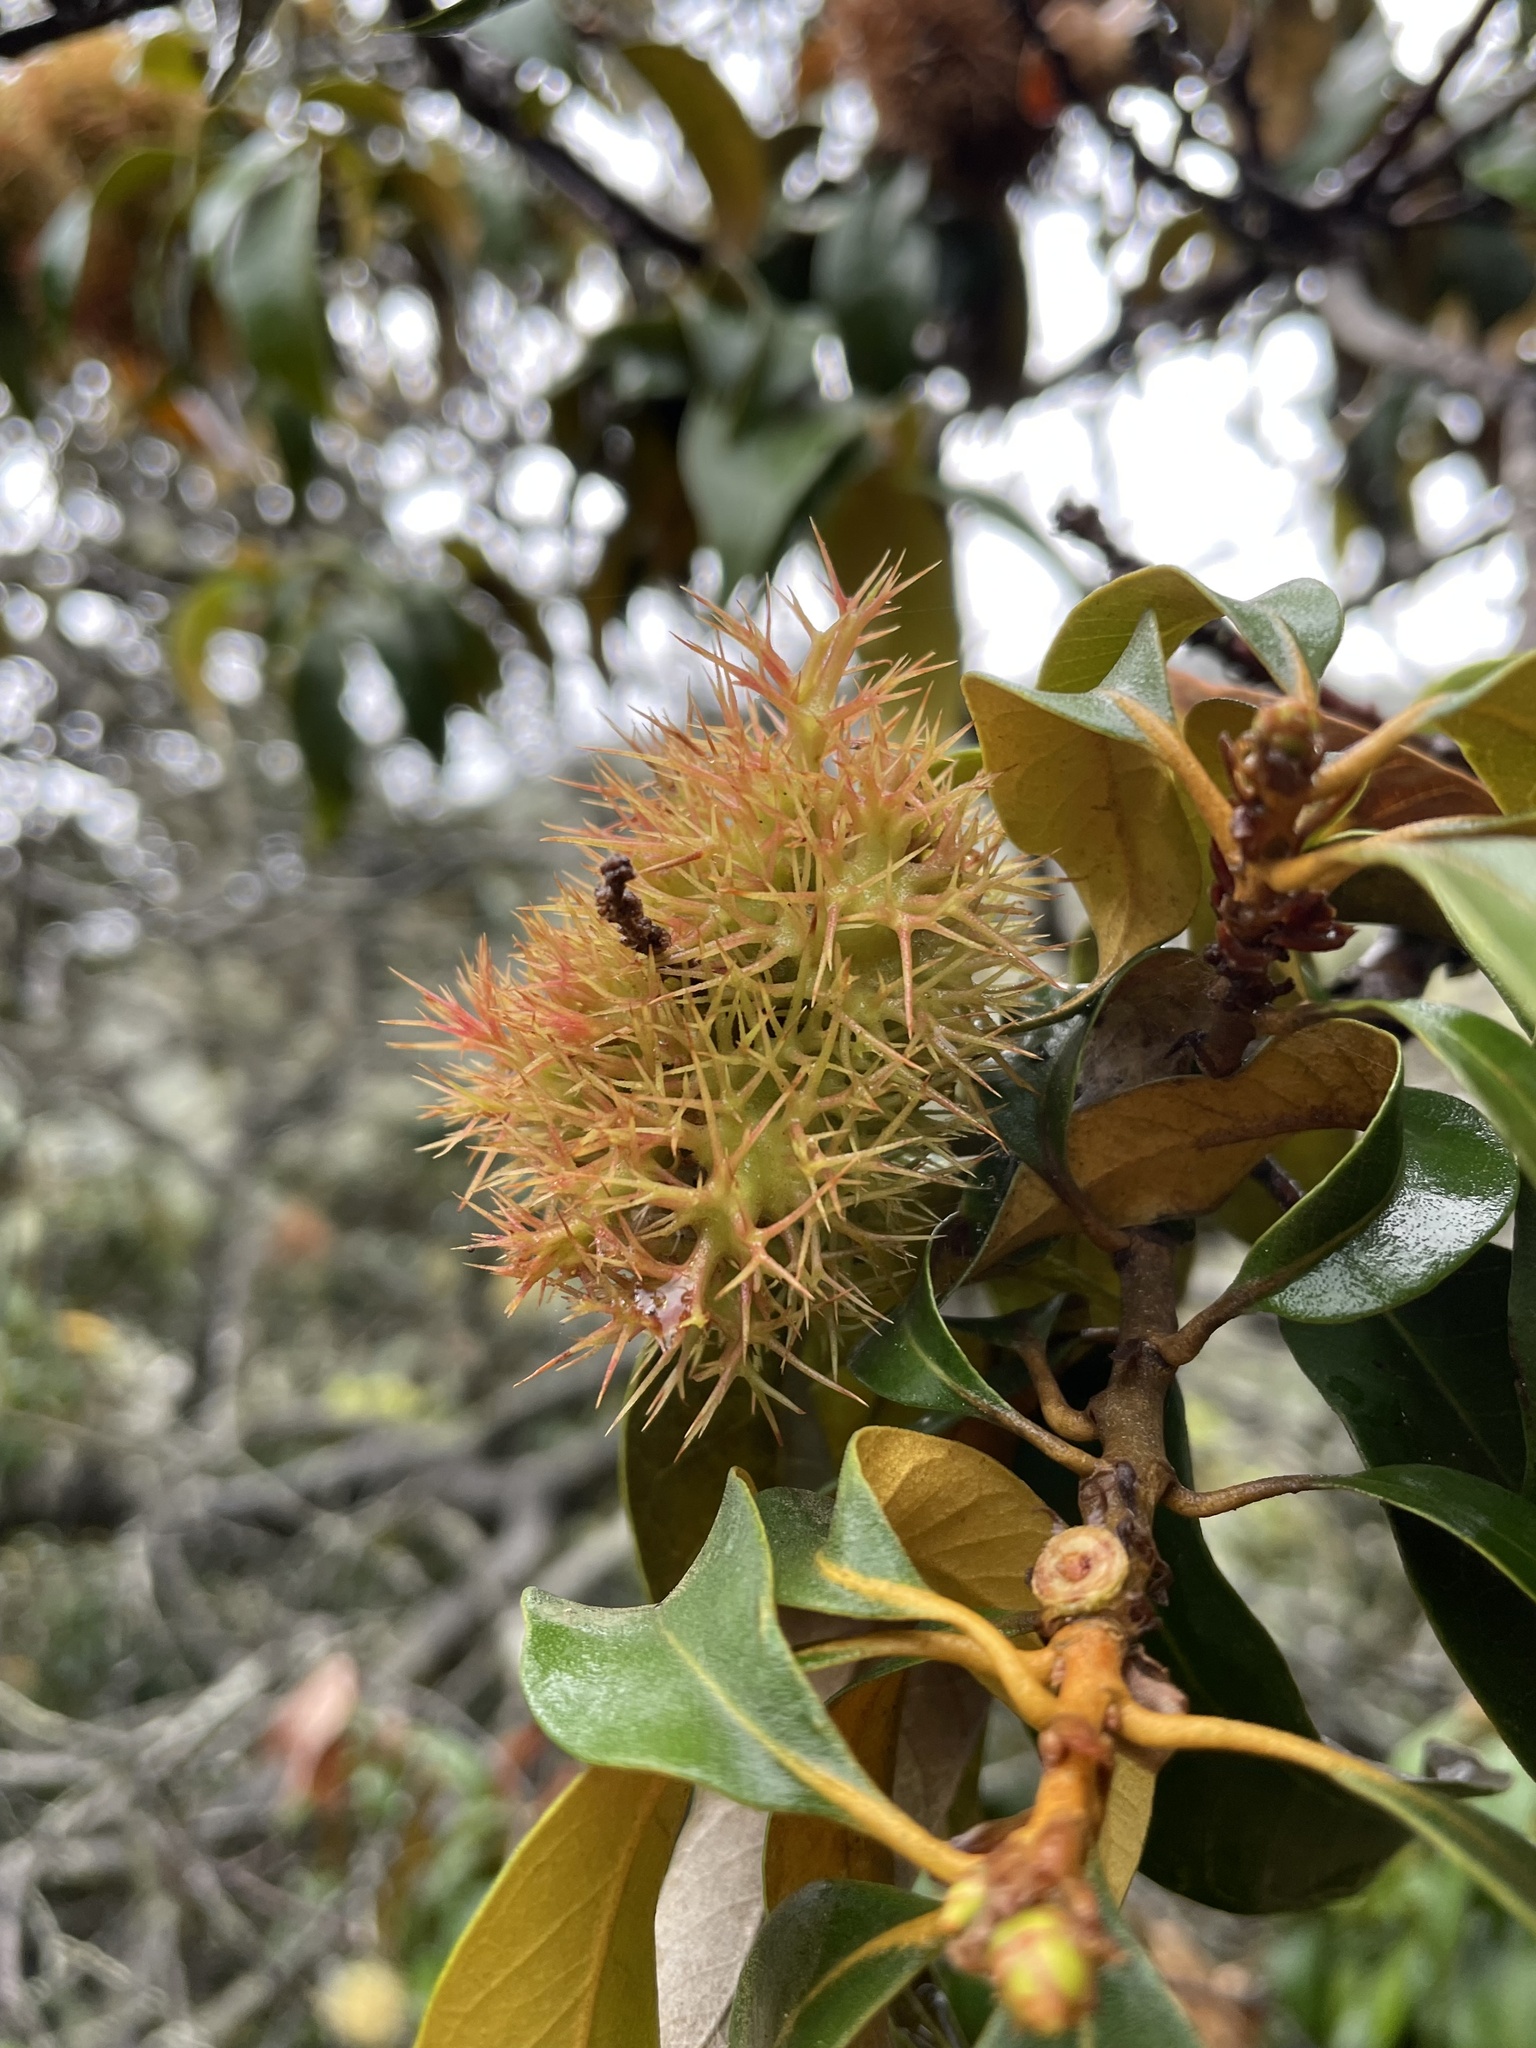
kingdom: Plantae
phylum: Tracheophyta
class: Magnoliopsida
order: Fagales
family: Fagaceae
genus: Chrysolepis
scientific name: Chrysolepis chrysophylla
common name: Giant chinquapin
